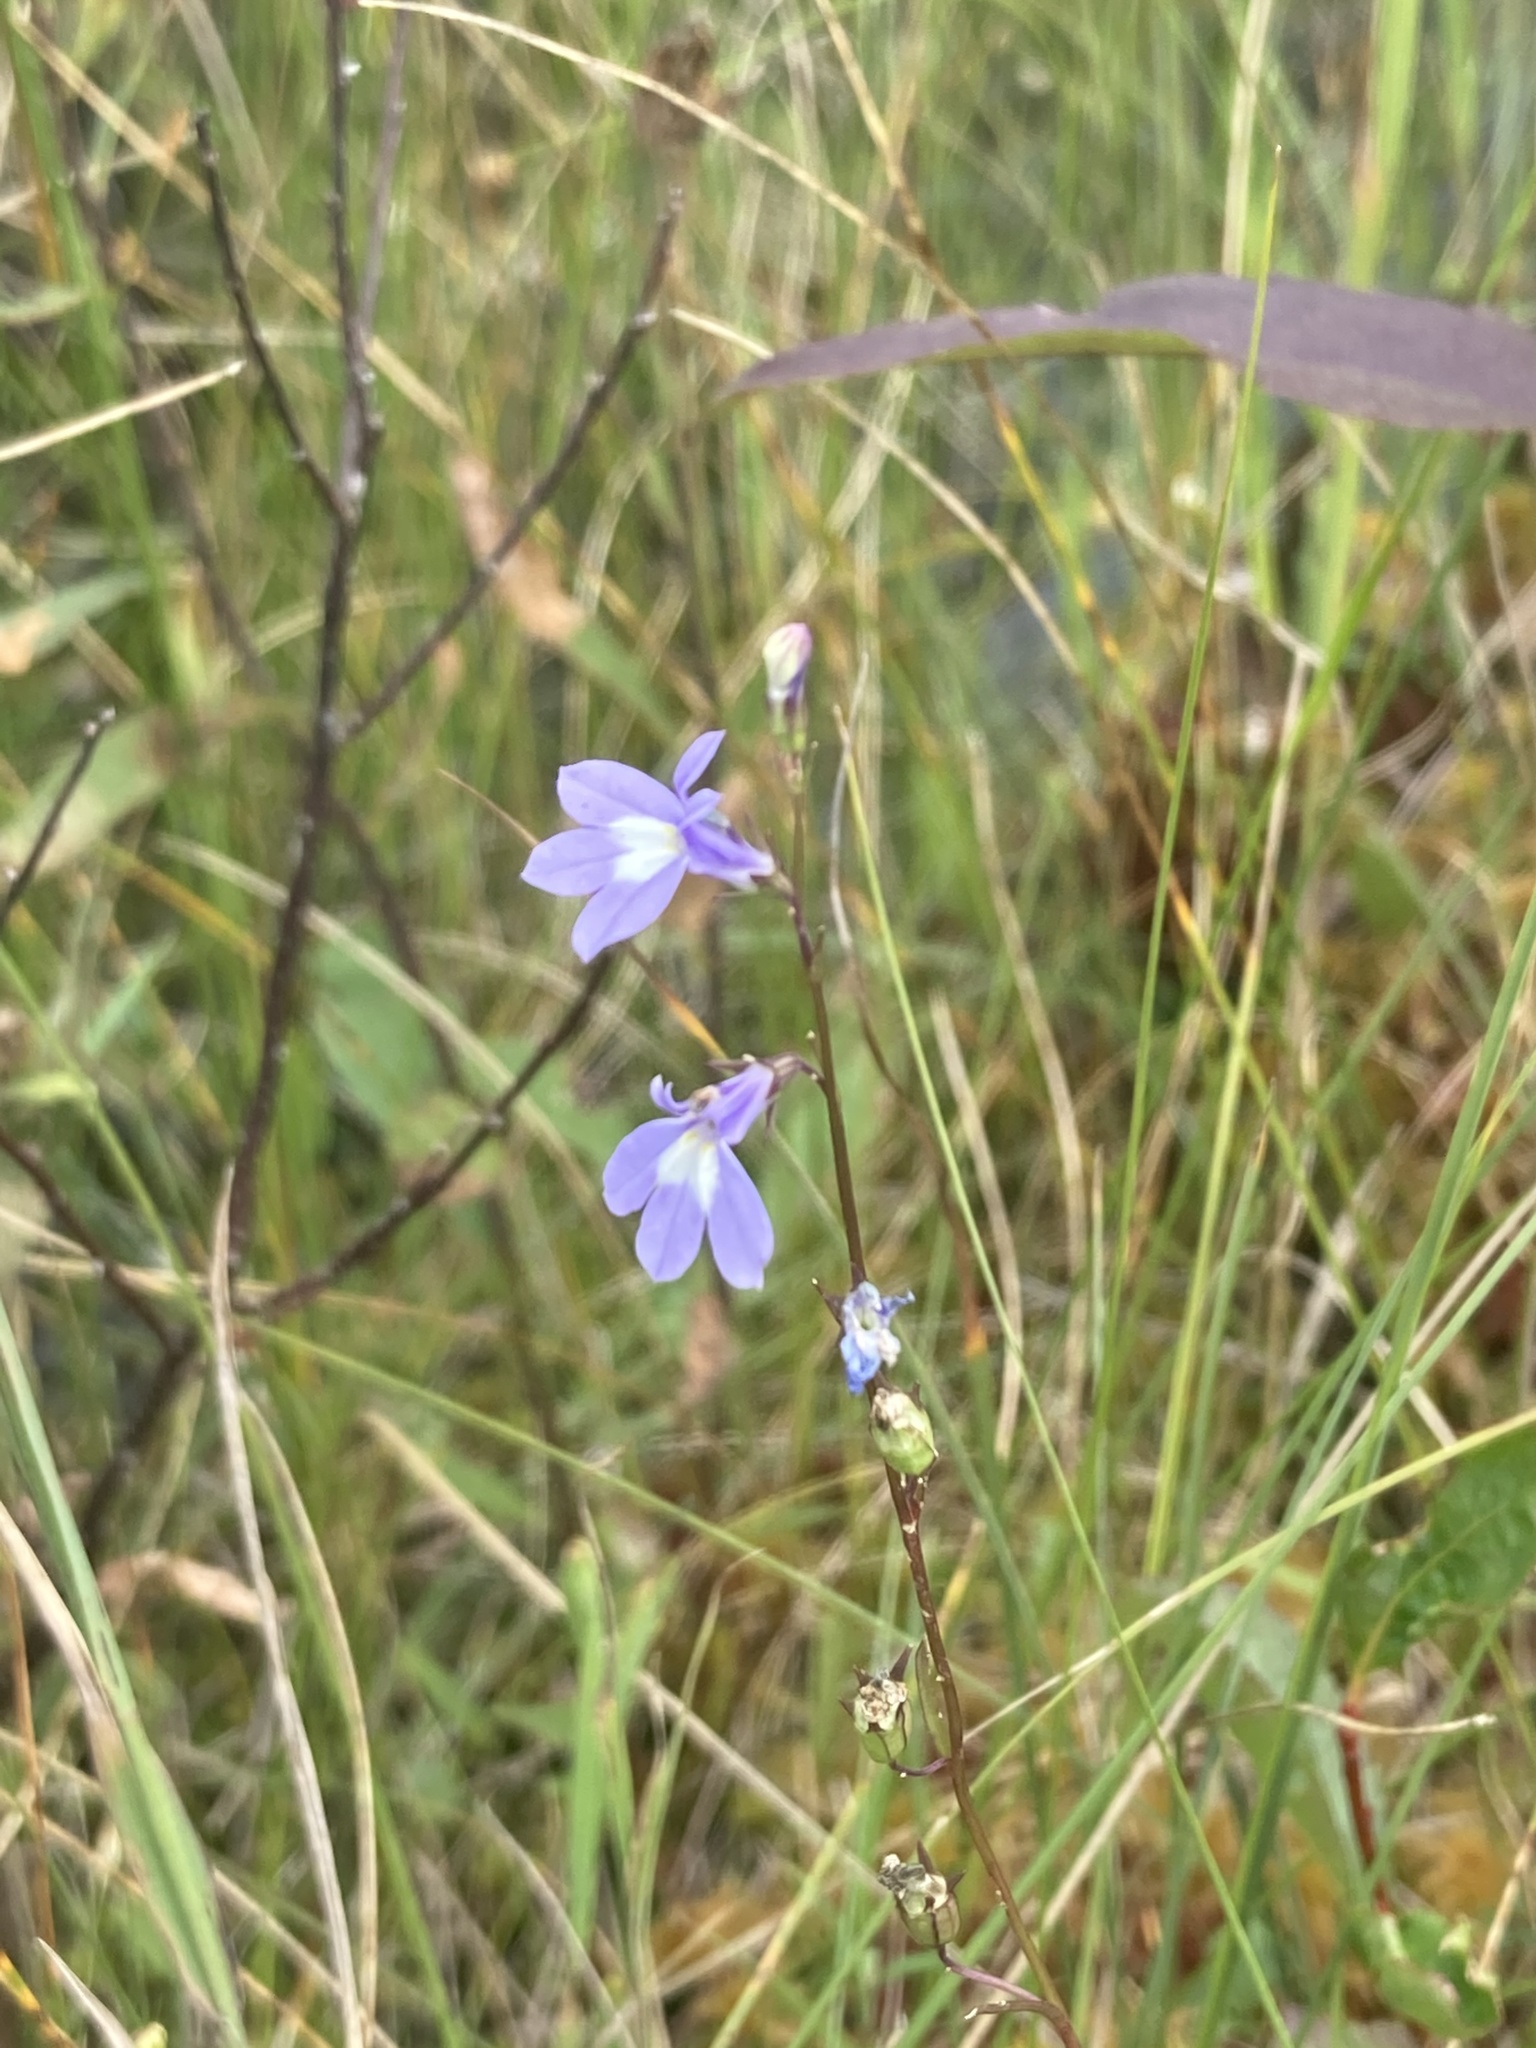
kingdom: Plantae
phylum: Tracheophyta
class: Magnoliopsida
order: Asterales
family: Campanulaceae
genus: Lobelia
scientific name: Lobelia kalmii
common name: Kalm's lobelia
